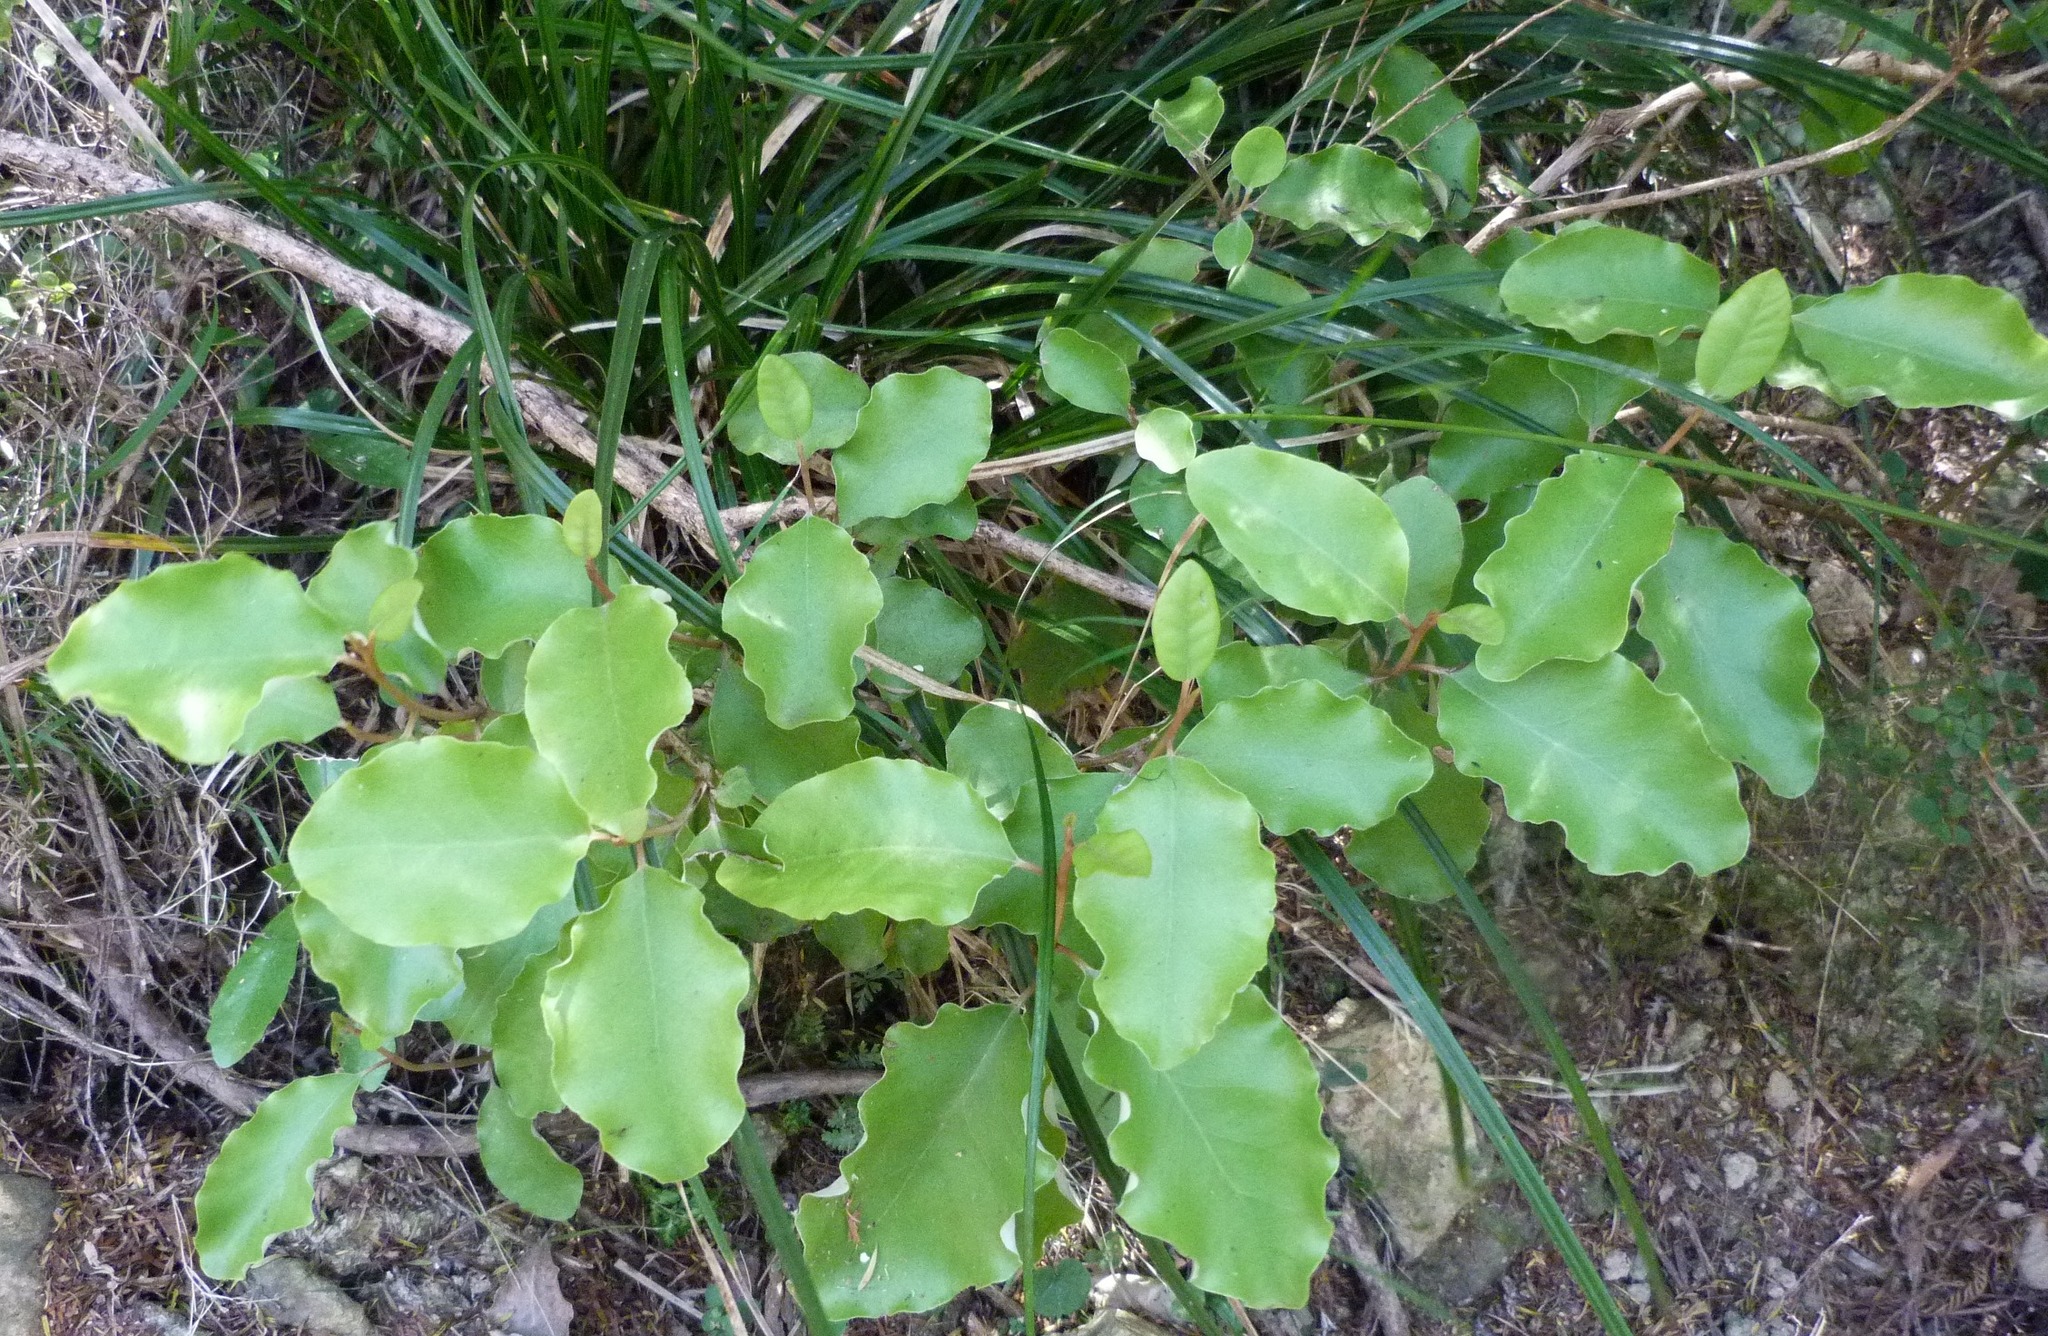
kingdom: Plantae
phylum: Tracheophyta
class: Magnoliopsida
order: Asterales
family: Asteraceae
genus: Olearia
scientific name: Olearia paniculata
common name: Akiraho
